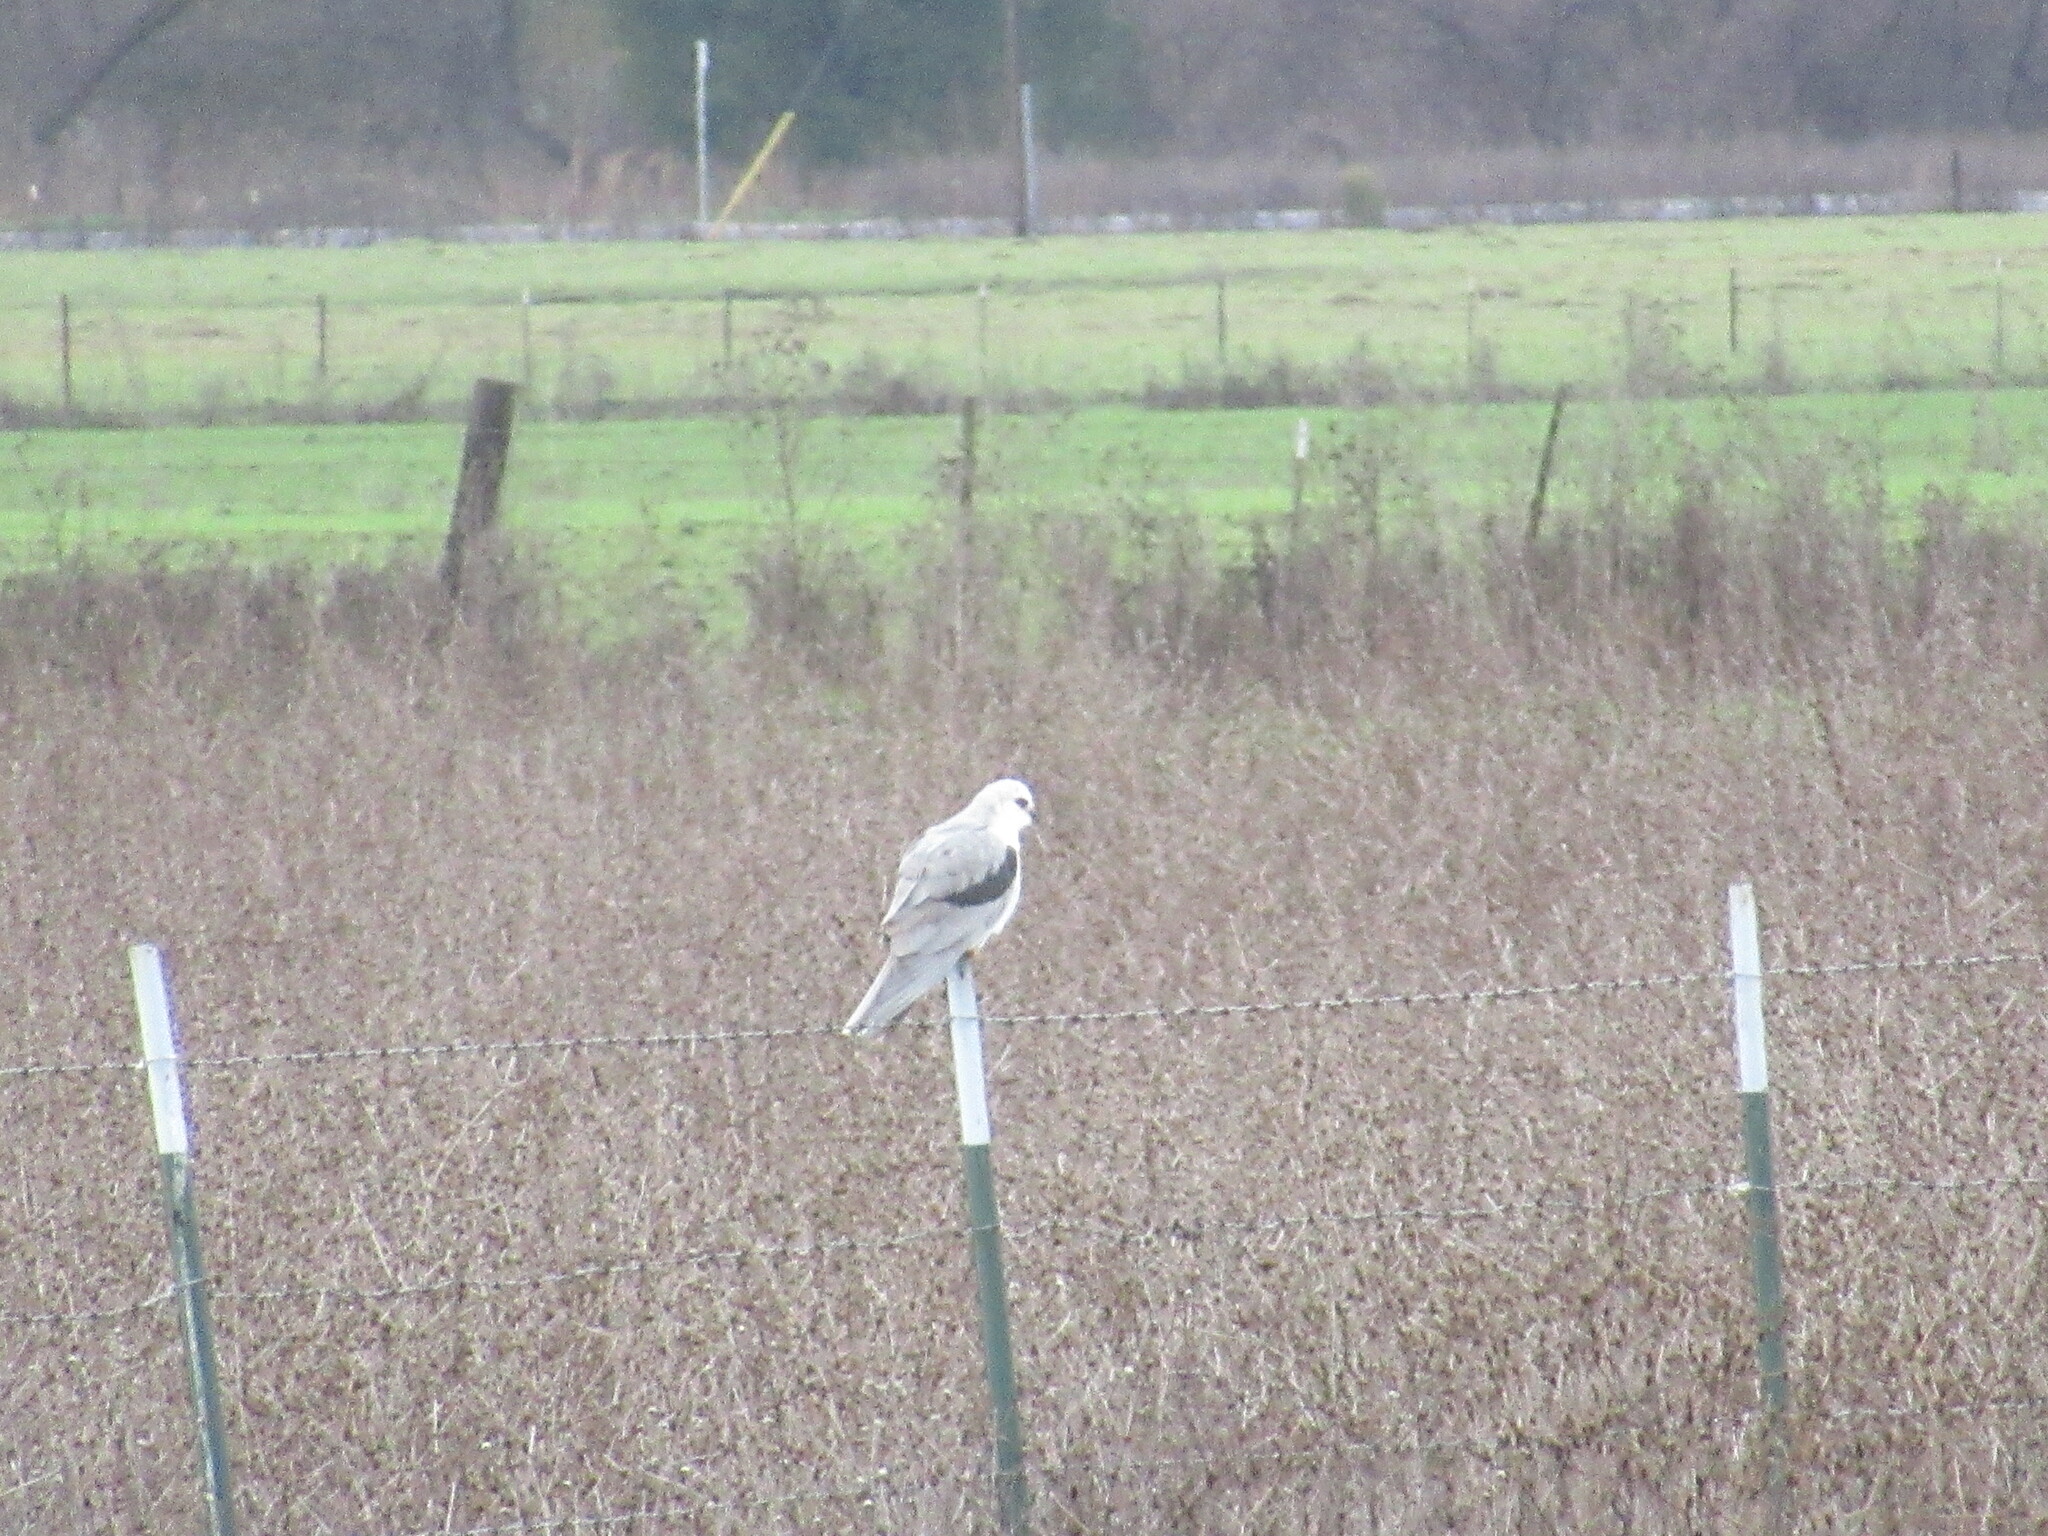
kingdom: Animalia
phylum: Chordata
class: Aves
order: Accipitriformes
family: Accipitridae
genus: Elanus
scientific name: Elanus leucurus
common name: White-tailed kite
